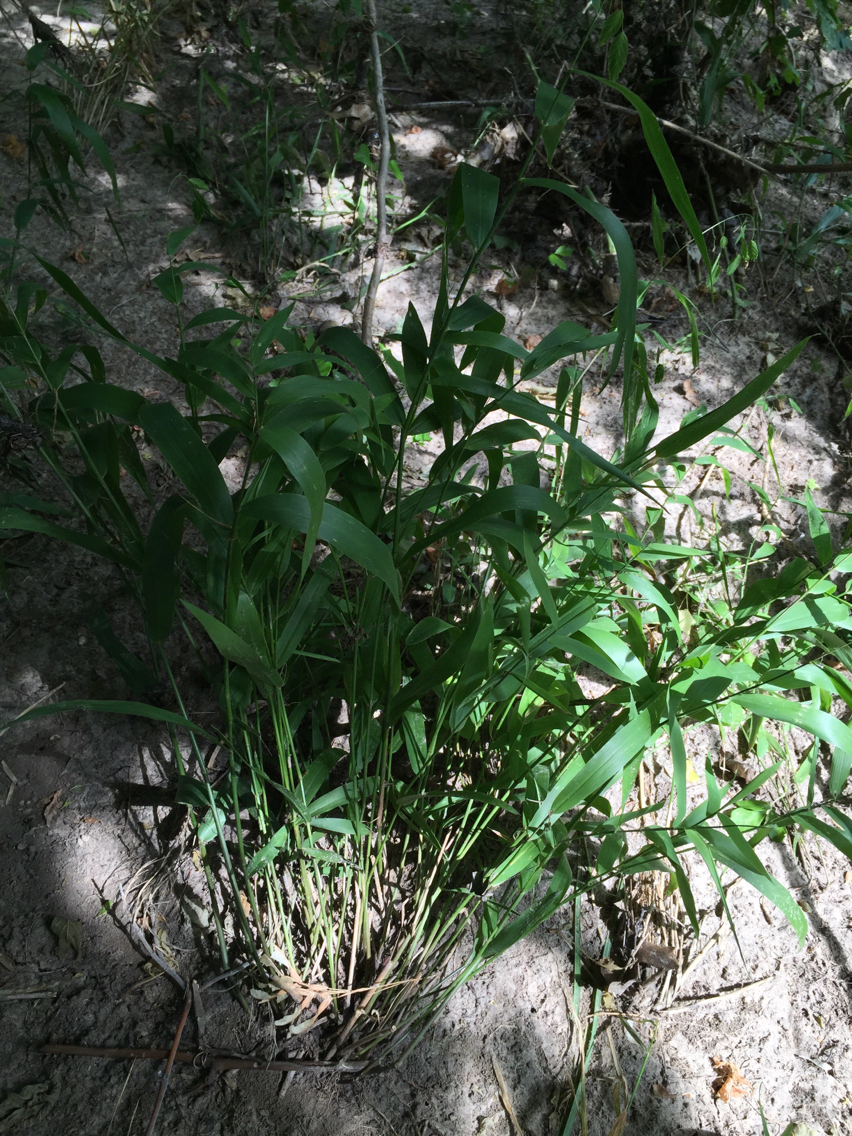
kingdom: Plantae
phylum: Tracheophyta
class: Liliopsida
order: Poales
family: Poaceae
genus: Chasmanthium
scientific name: Chasmanthium latifolium
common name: Broad-leaved chasmanthium
